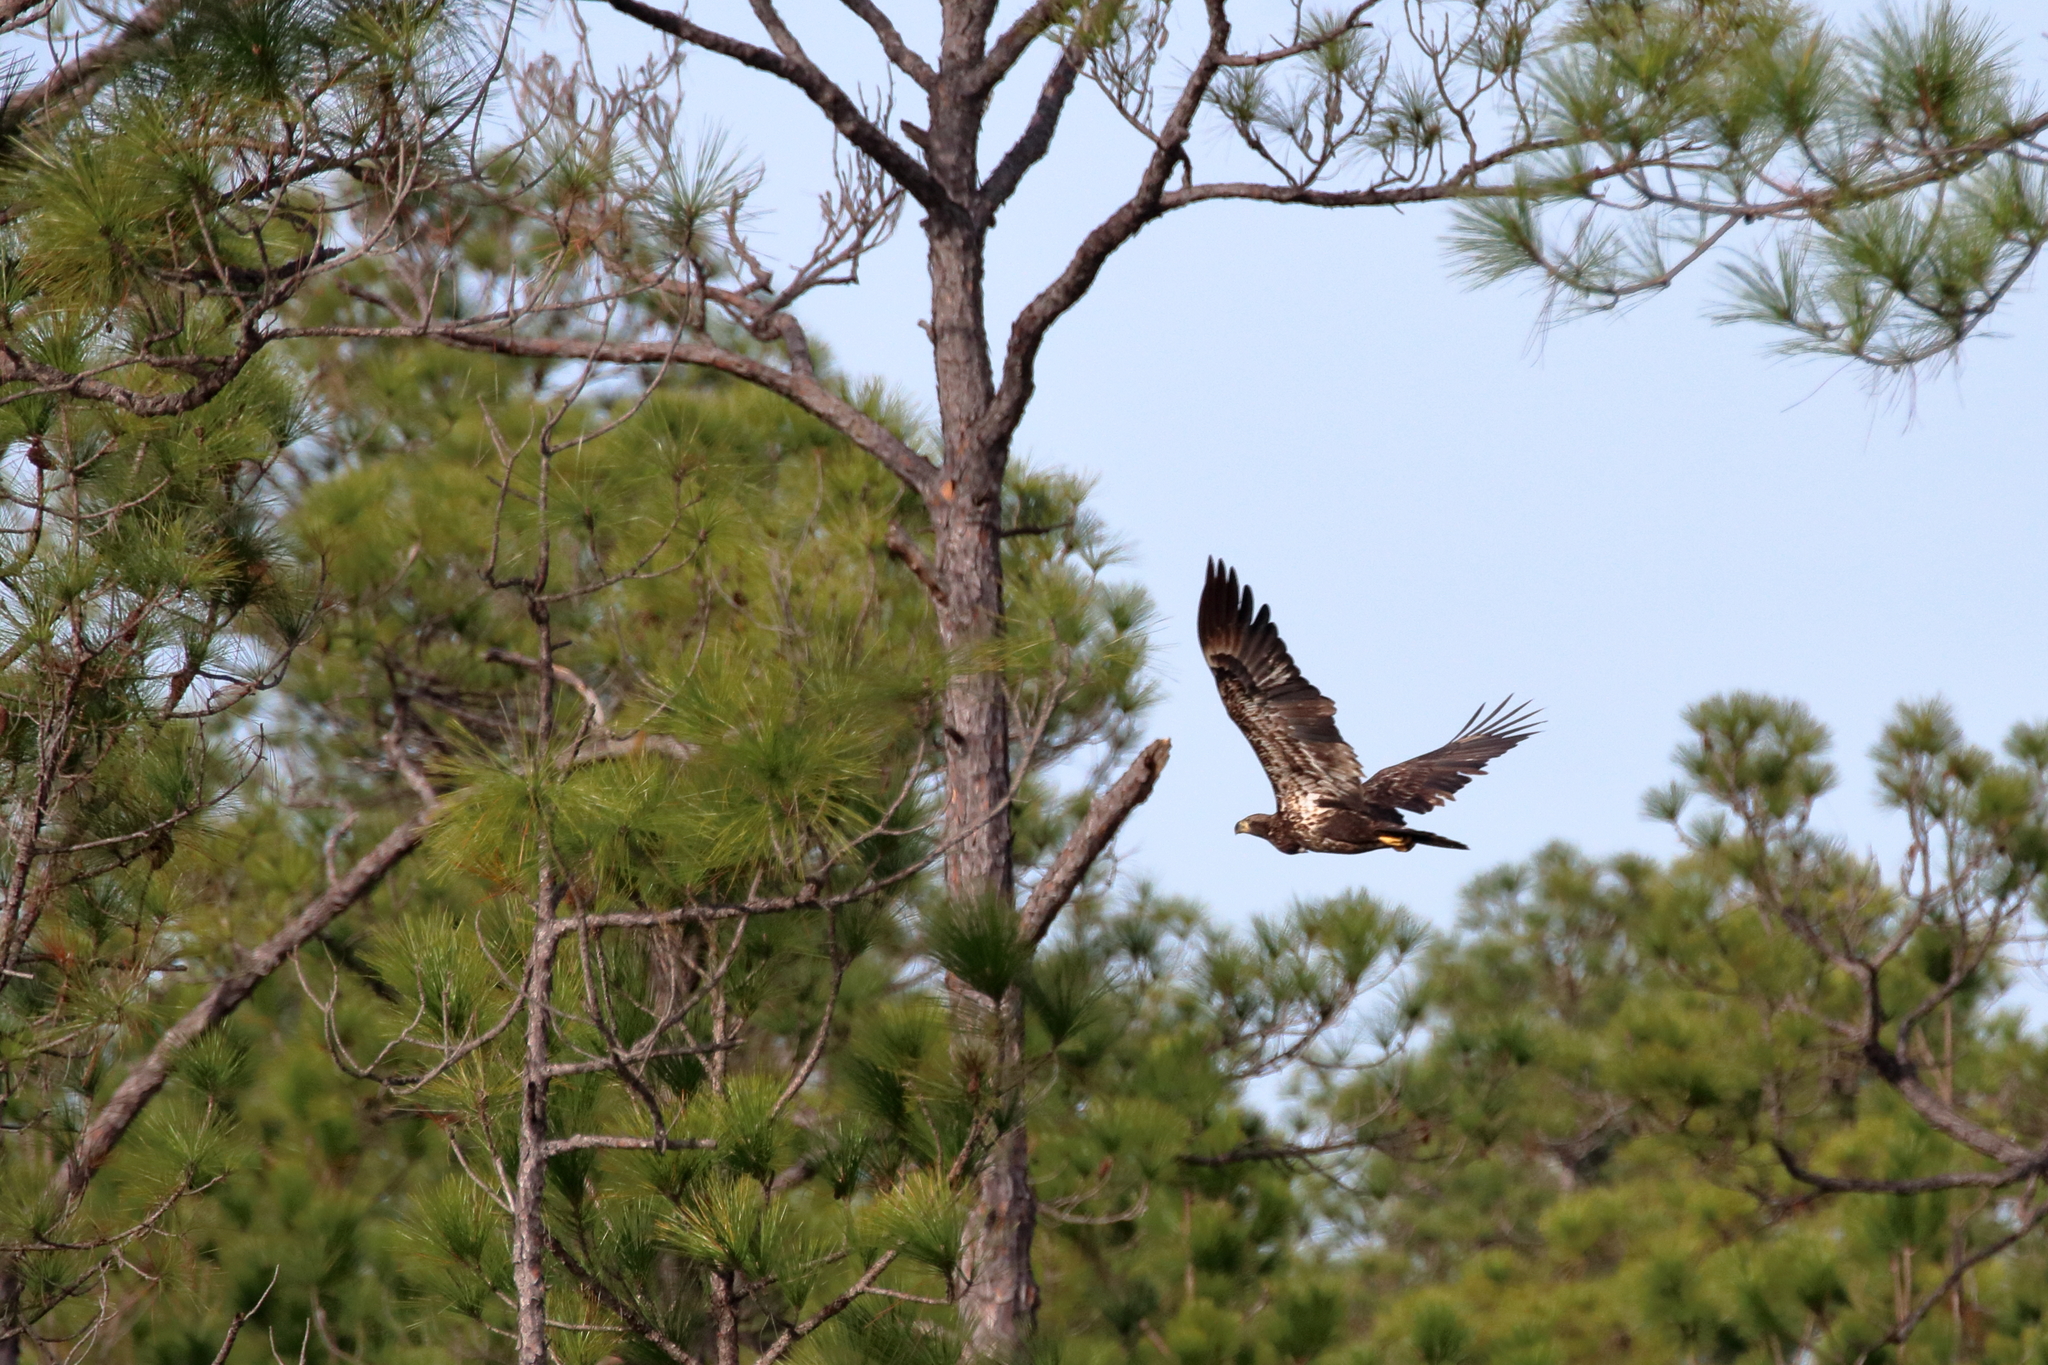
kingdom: Animalia
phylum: Chordata
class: Aves
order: Accipitriformes
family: Accipitridae
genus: Haliaeetus
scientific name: Haliaeetus leucocephalus
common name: Bald eagle
